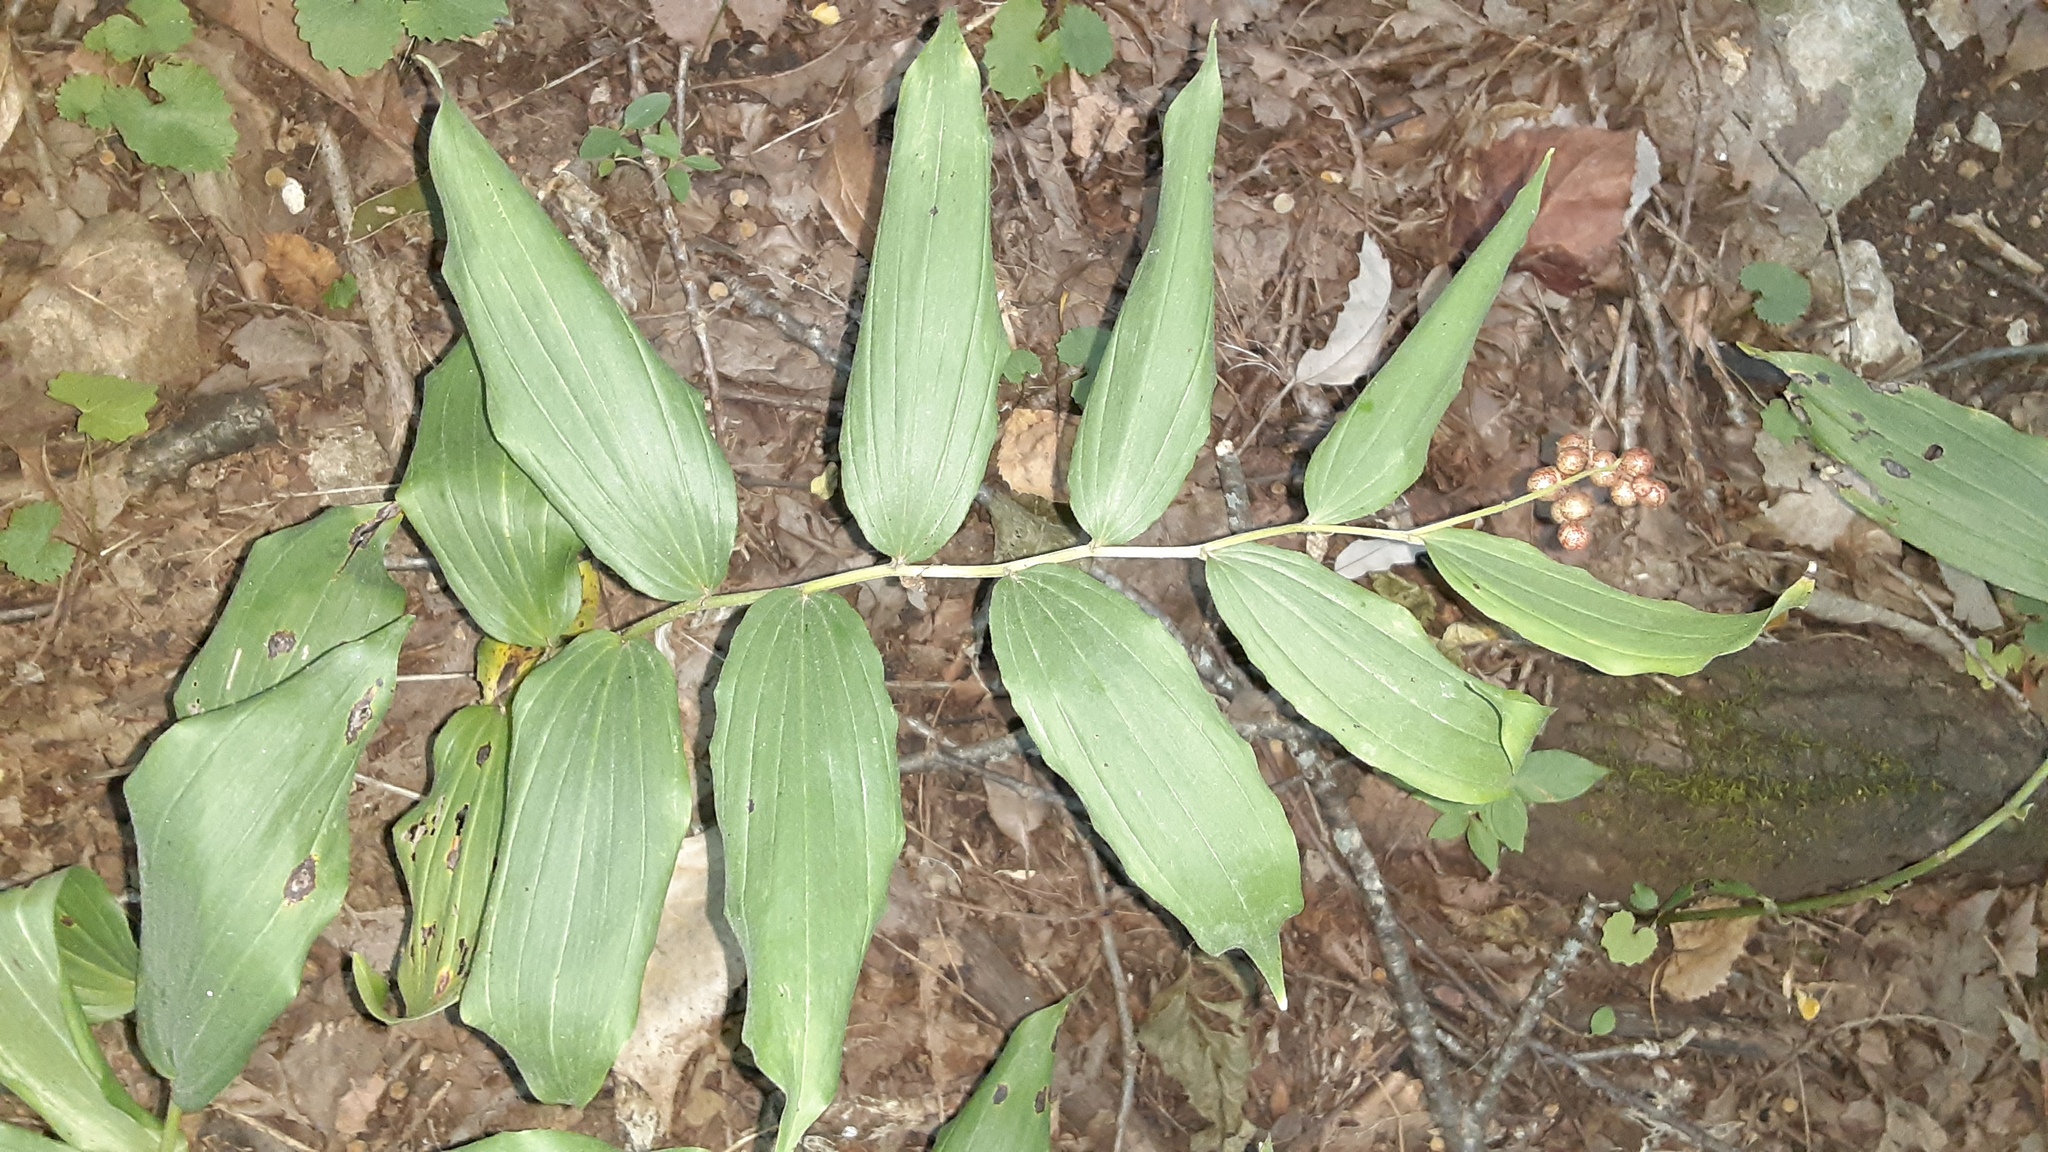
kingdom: Plantae
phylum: Tracheophyta
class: Liliopsida
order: Asparagales
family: Asparagaceae
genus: Maianthemum
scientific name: Maianthemum racemosum
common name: False spikenard
